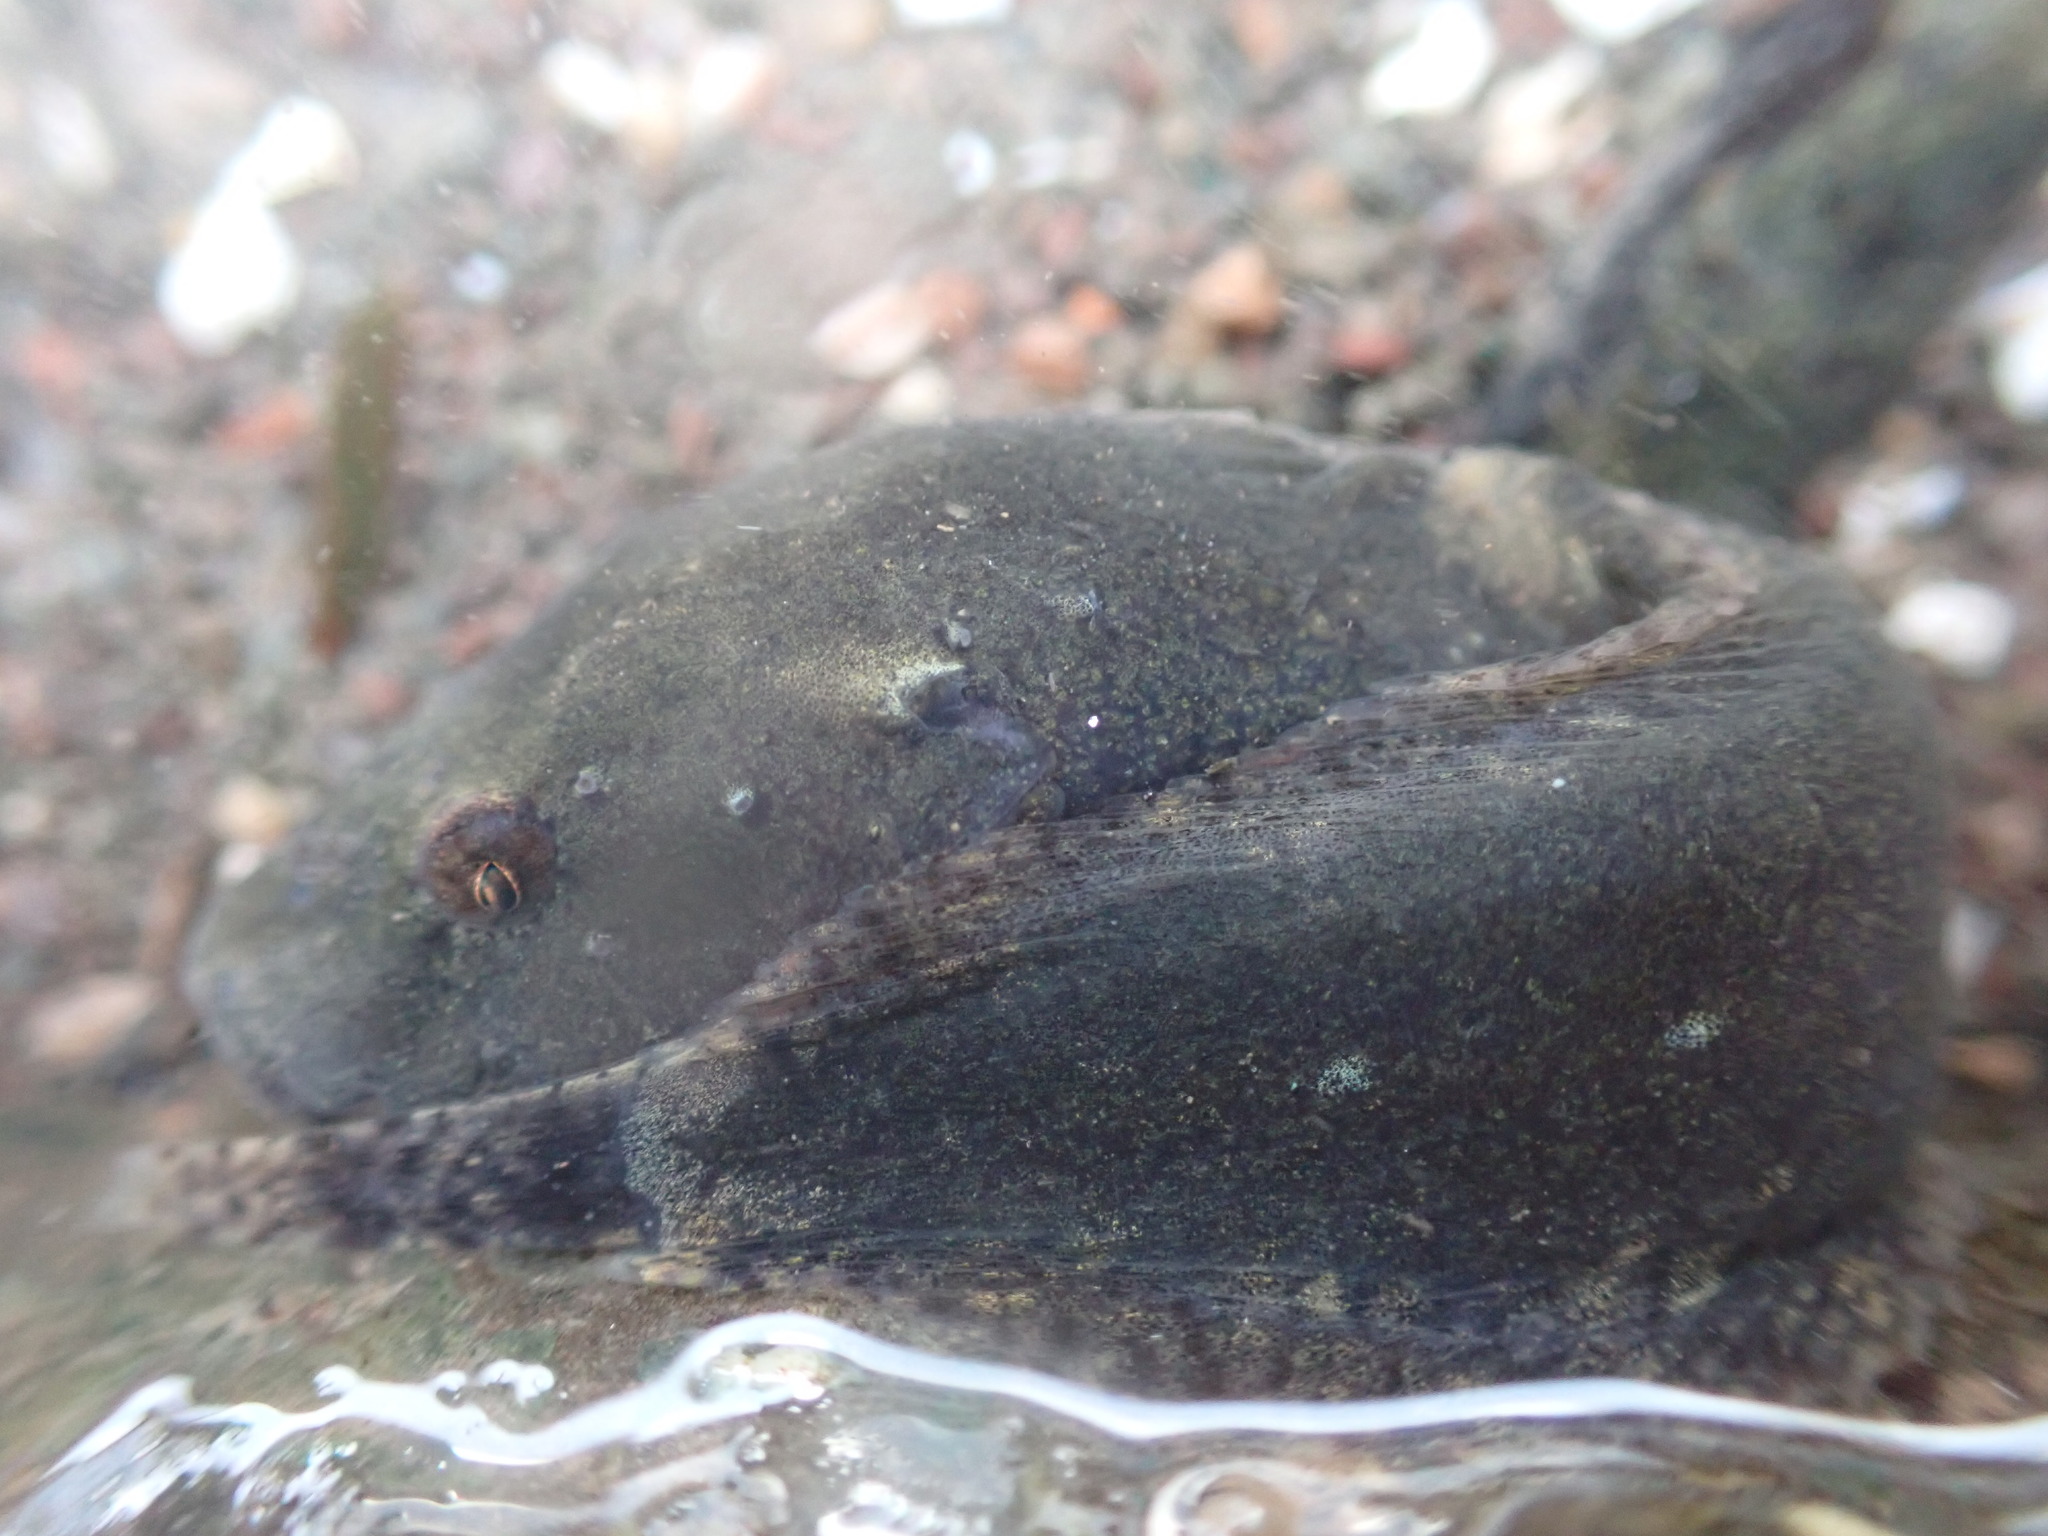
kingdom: Animalia
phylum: Chordata
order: Scorpaeniformes
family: Liparidae
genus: Liparis
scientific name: Liparis atlanticus
